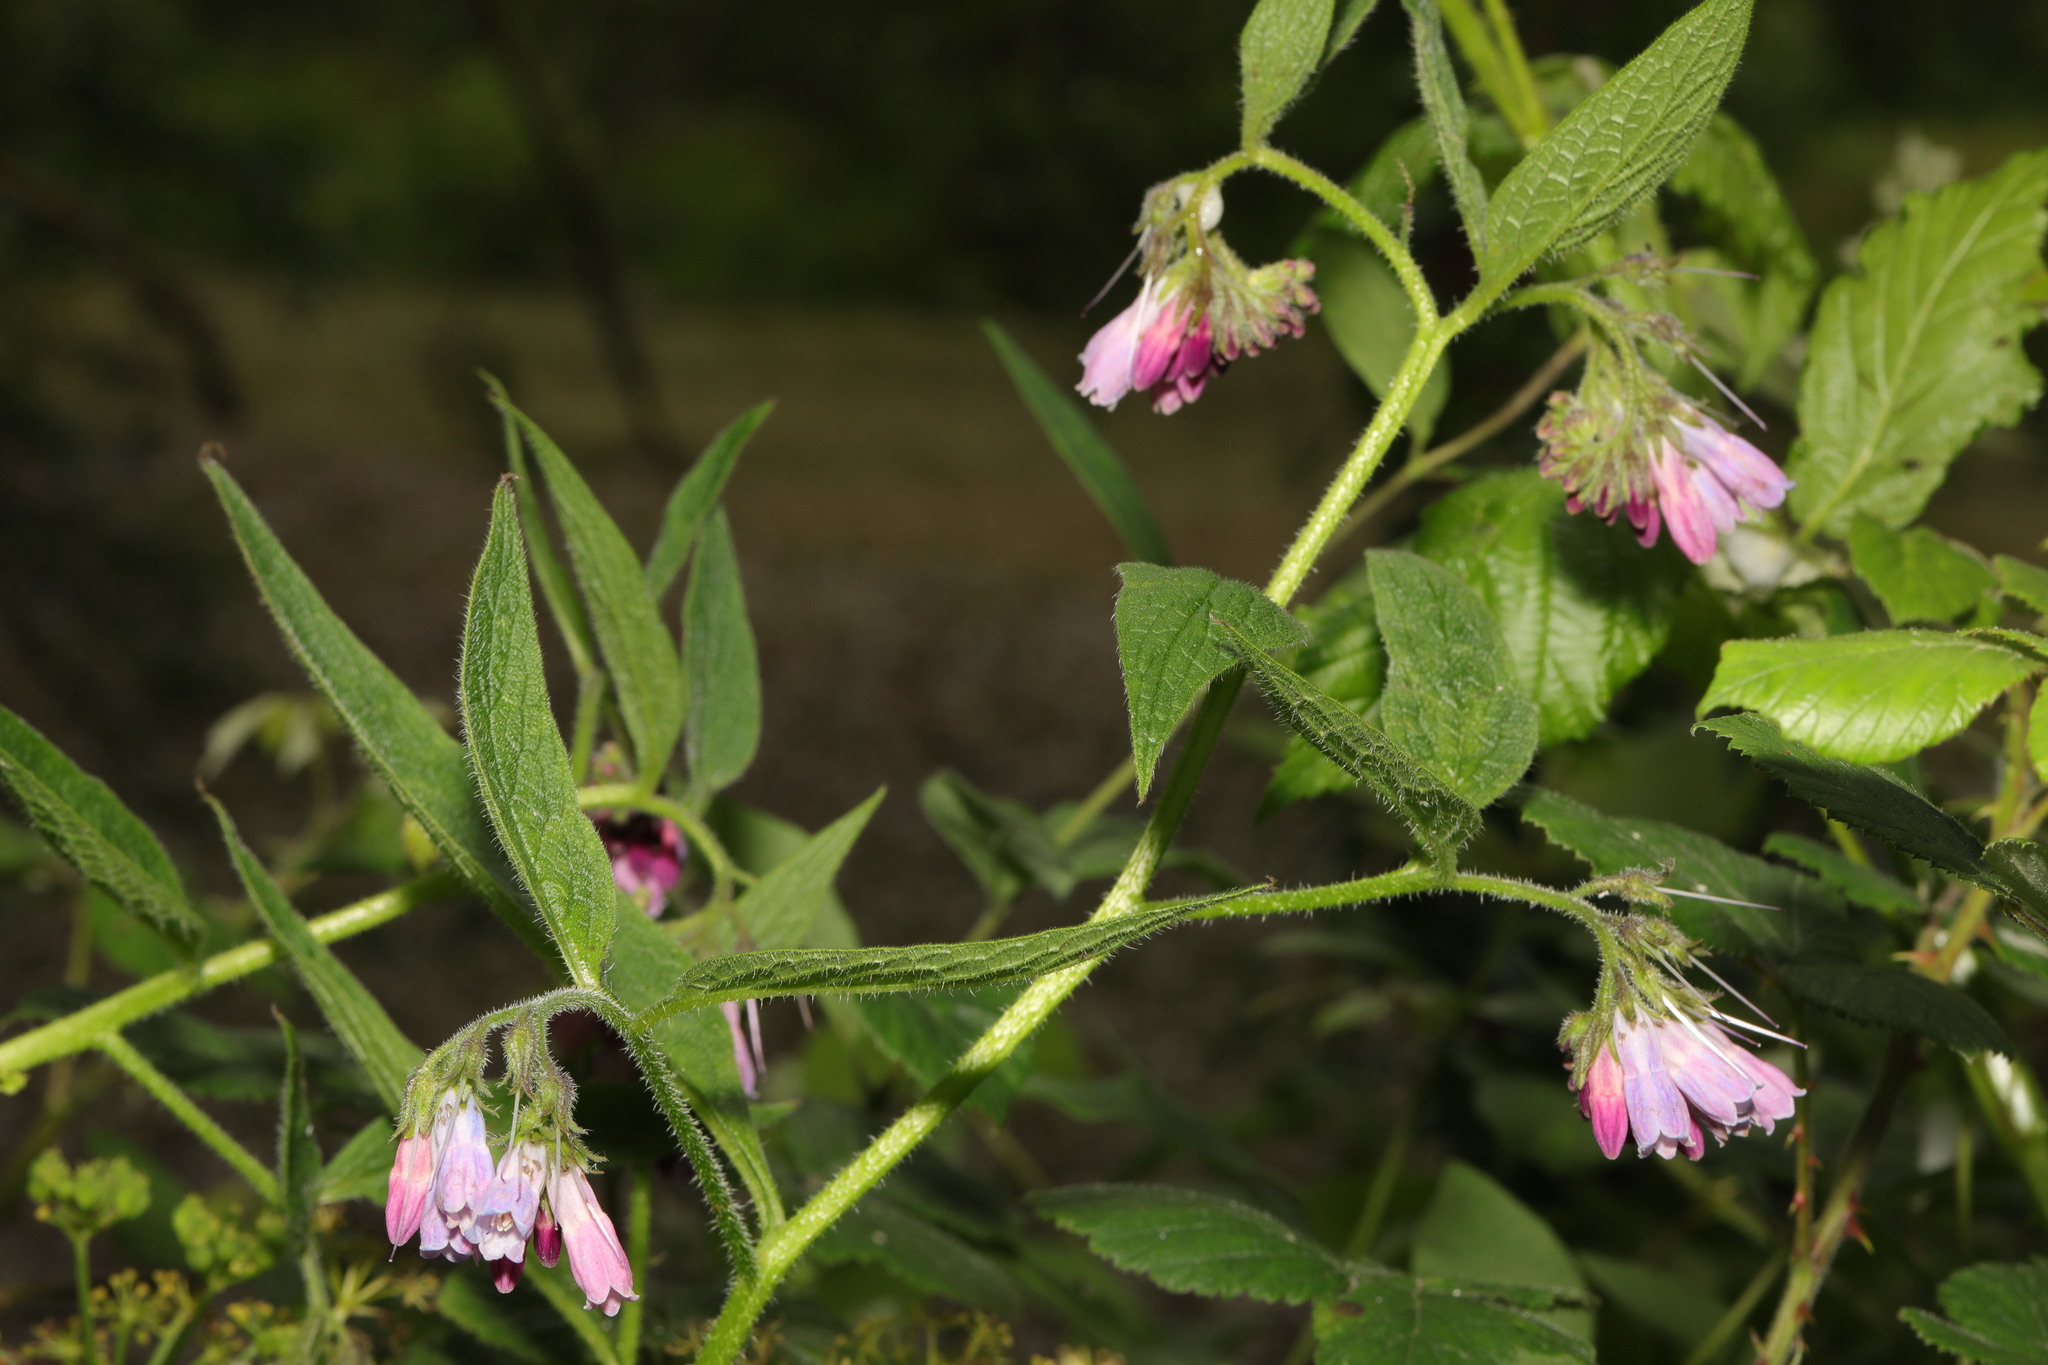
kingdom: Plantae
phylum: Tracheophyta
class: Magnoliopsida
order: Boraginales
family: Boraginaceae
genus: Symphytum
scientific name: Symphytum uplandicum
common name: Russian comfrey
